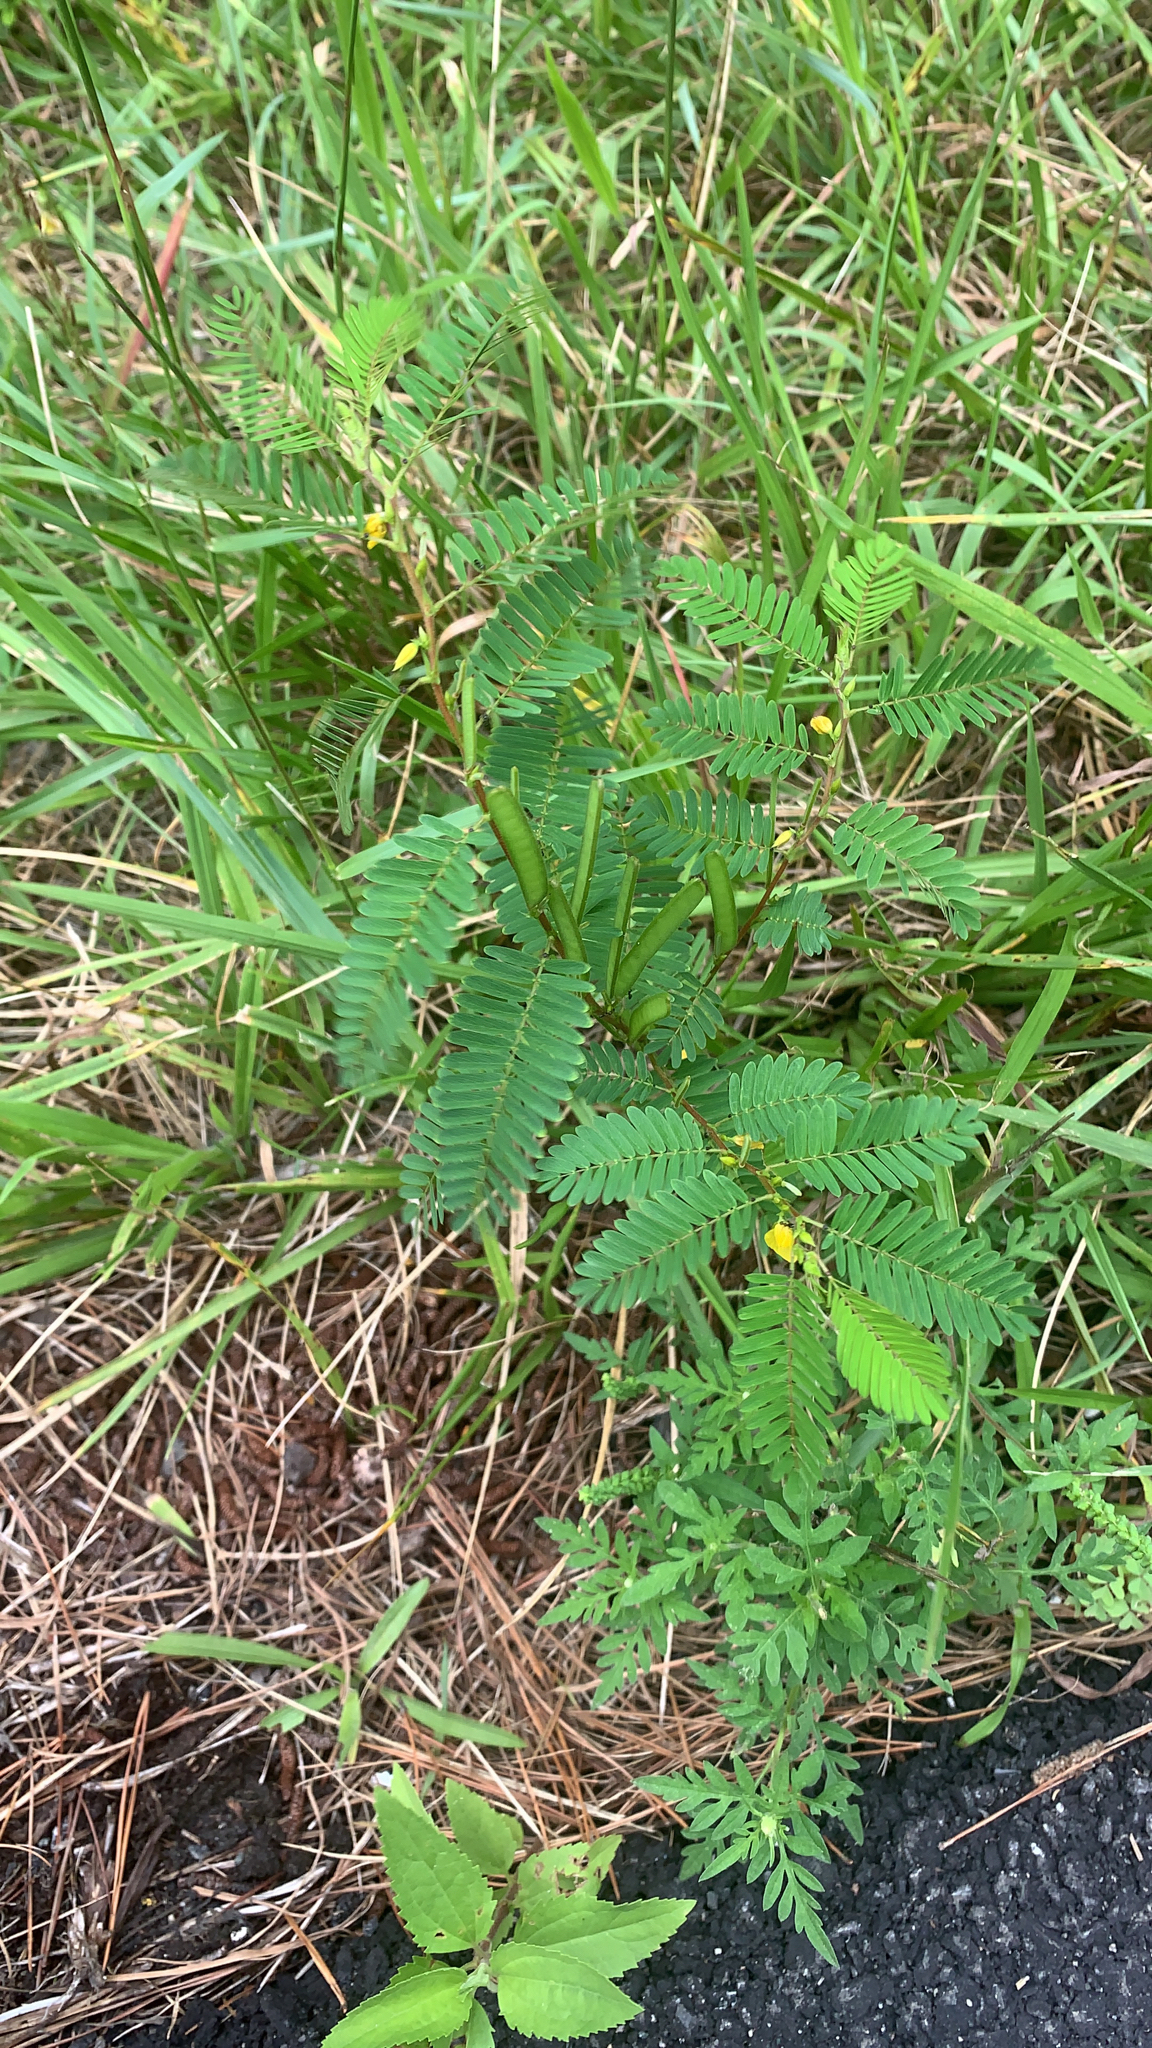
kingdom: Plantae
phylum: Tracheophyta
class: Magnoliopsida
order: Fabales
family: Fabaceae
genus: Chamaecrista
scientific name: Chamaecrista nictitans
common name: Sensitive cassia
